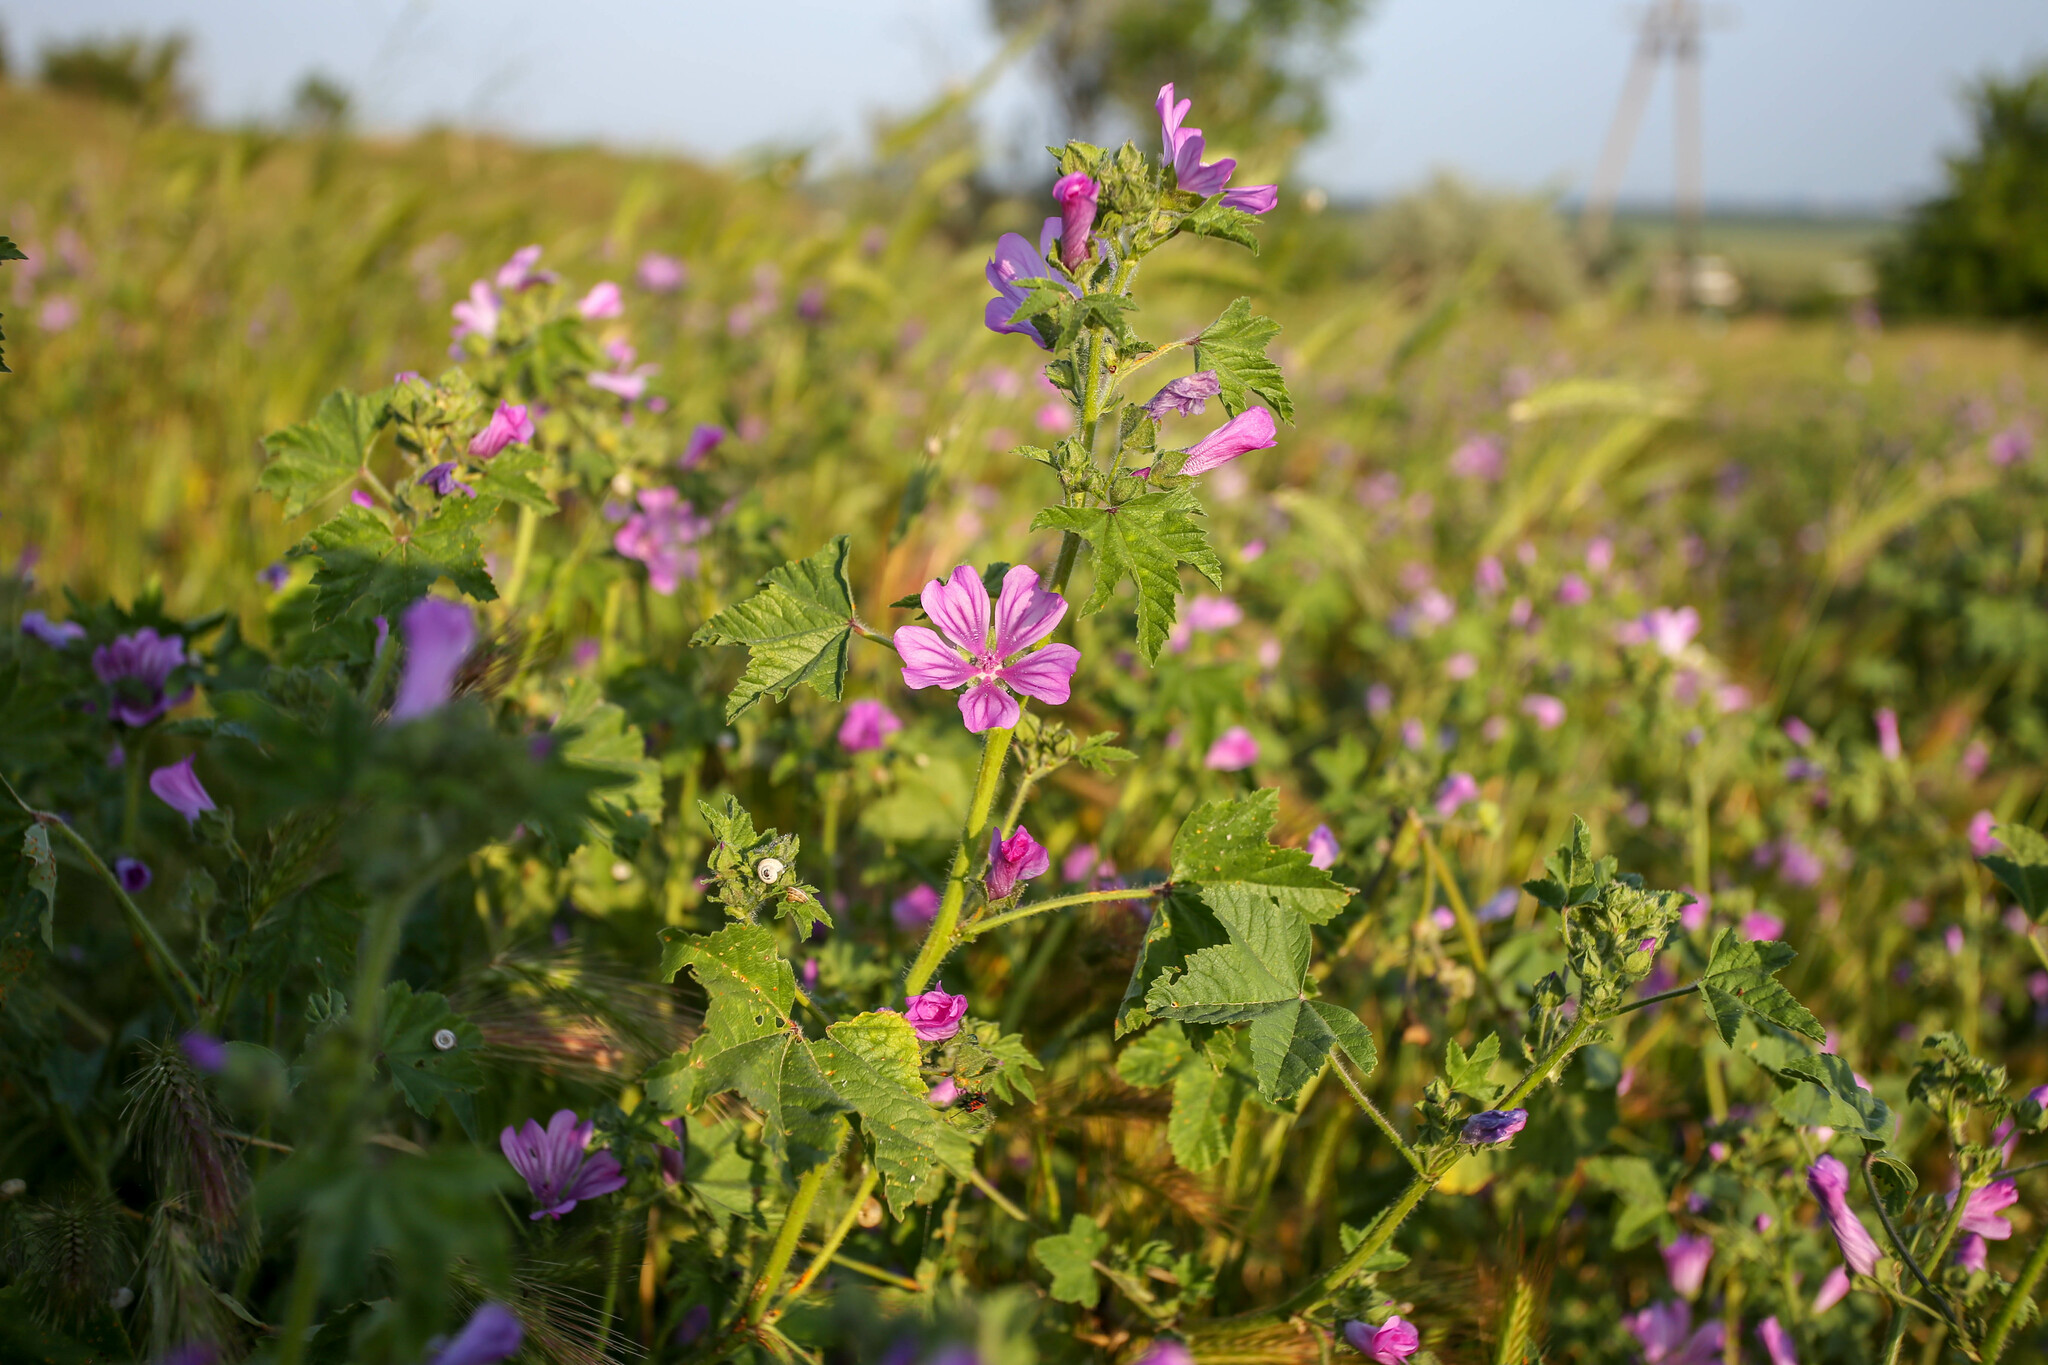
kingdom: Plantae
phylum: Tracheophyta
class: Magnoliopsida
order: Malvales
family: Malvaceae
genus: Malva
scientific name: Malva sylvestris
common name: Common mallow
